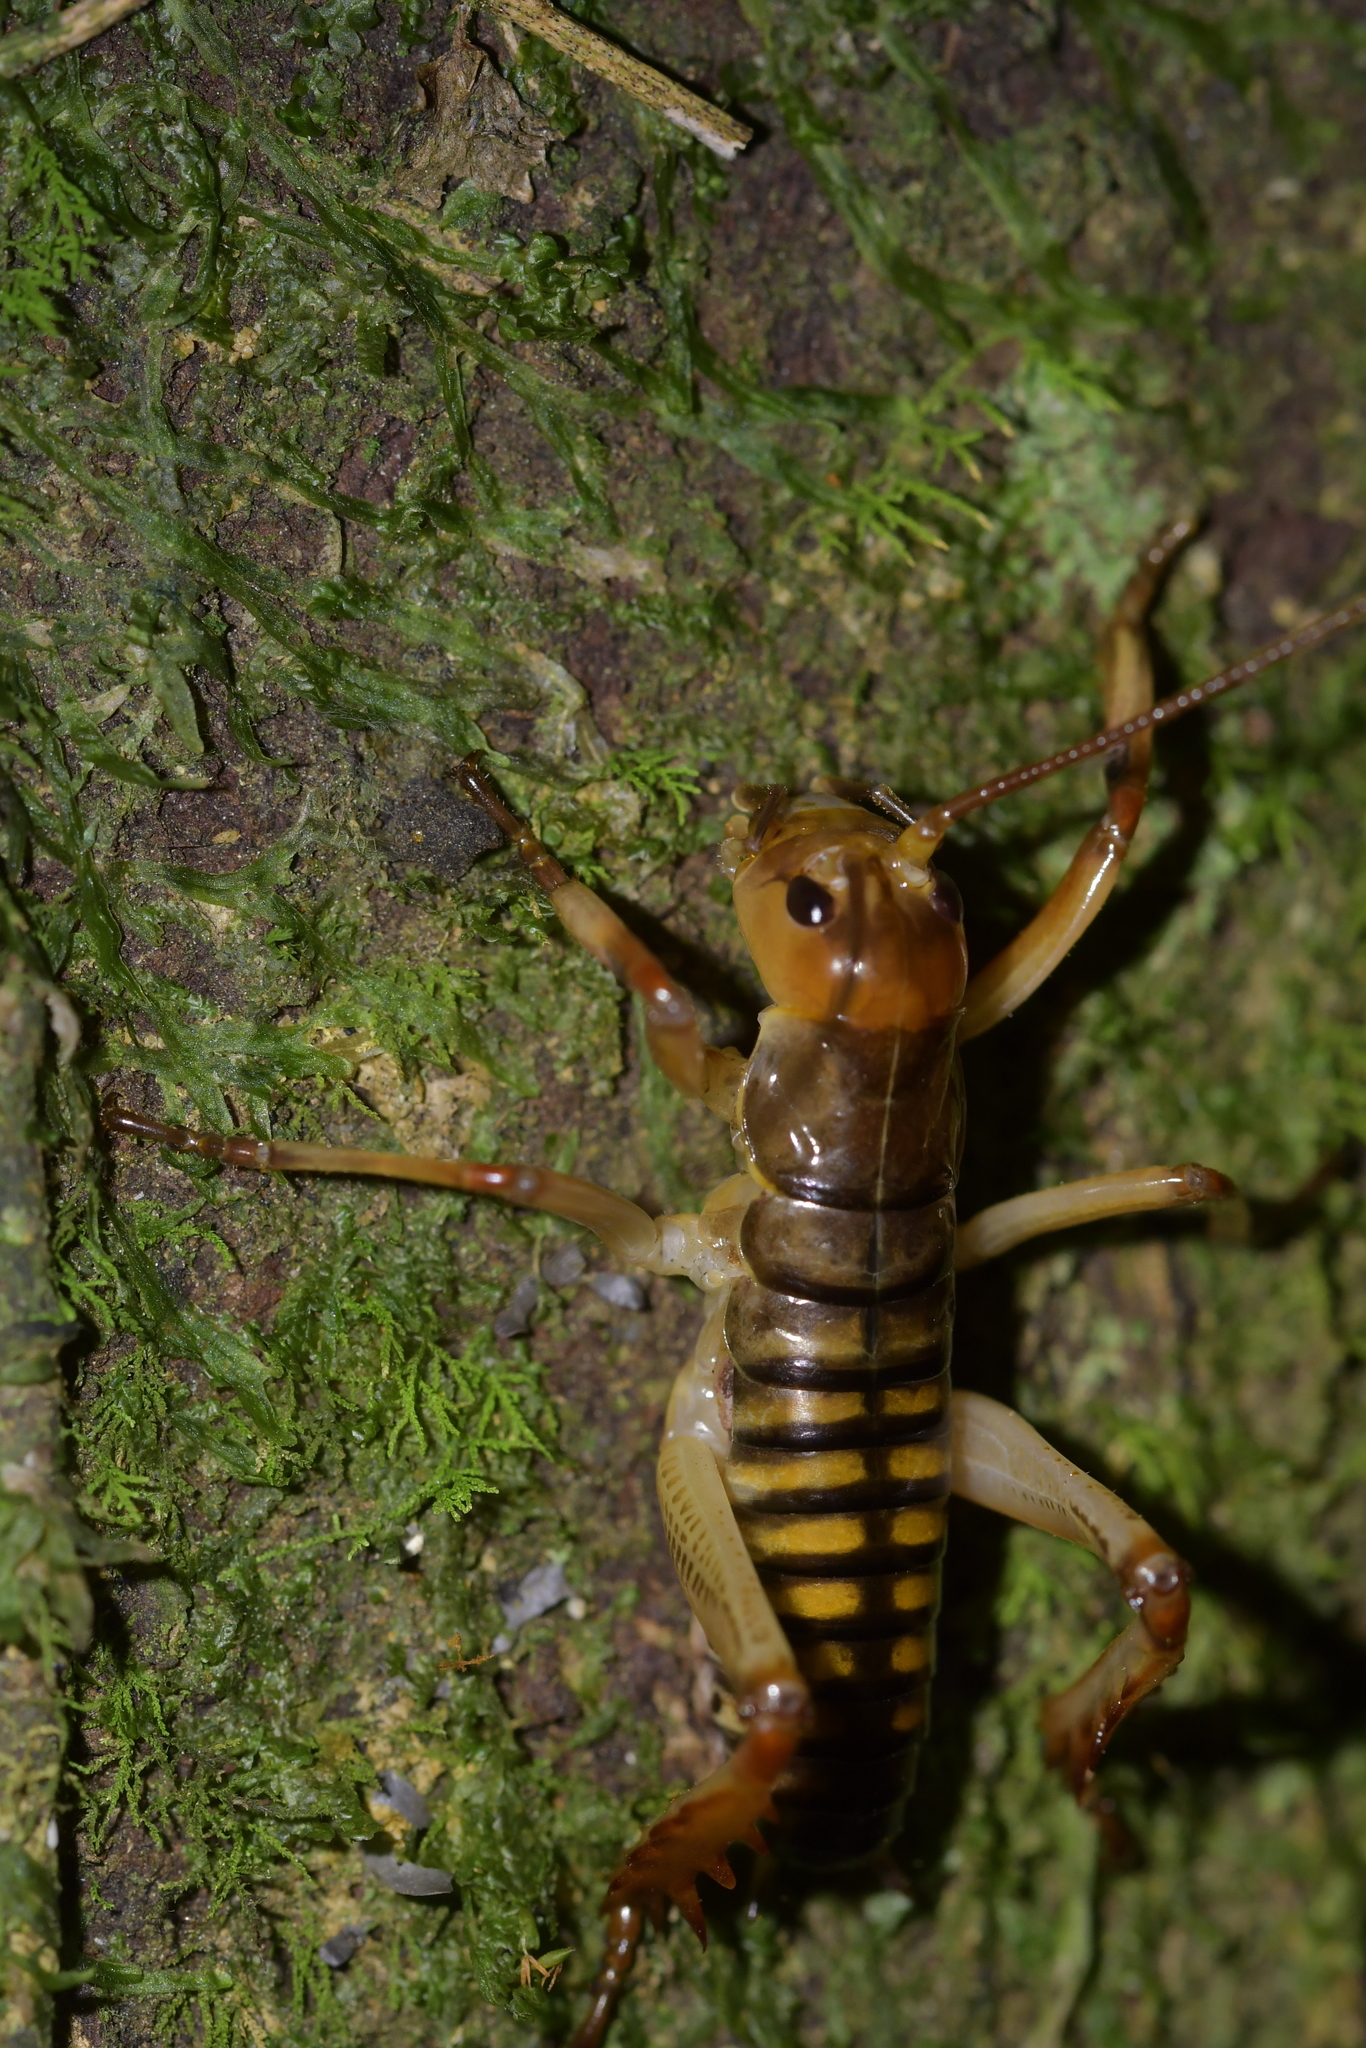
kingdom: Animalia
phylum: Arthropoda
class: Insecta
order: Orthoptera
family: Anostostomatidae
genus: Hemideina
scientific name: Hemideina crassidens
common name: Wellington tree weta
